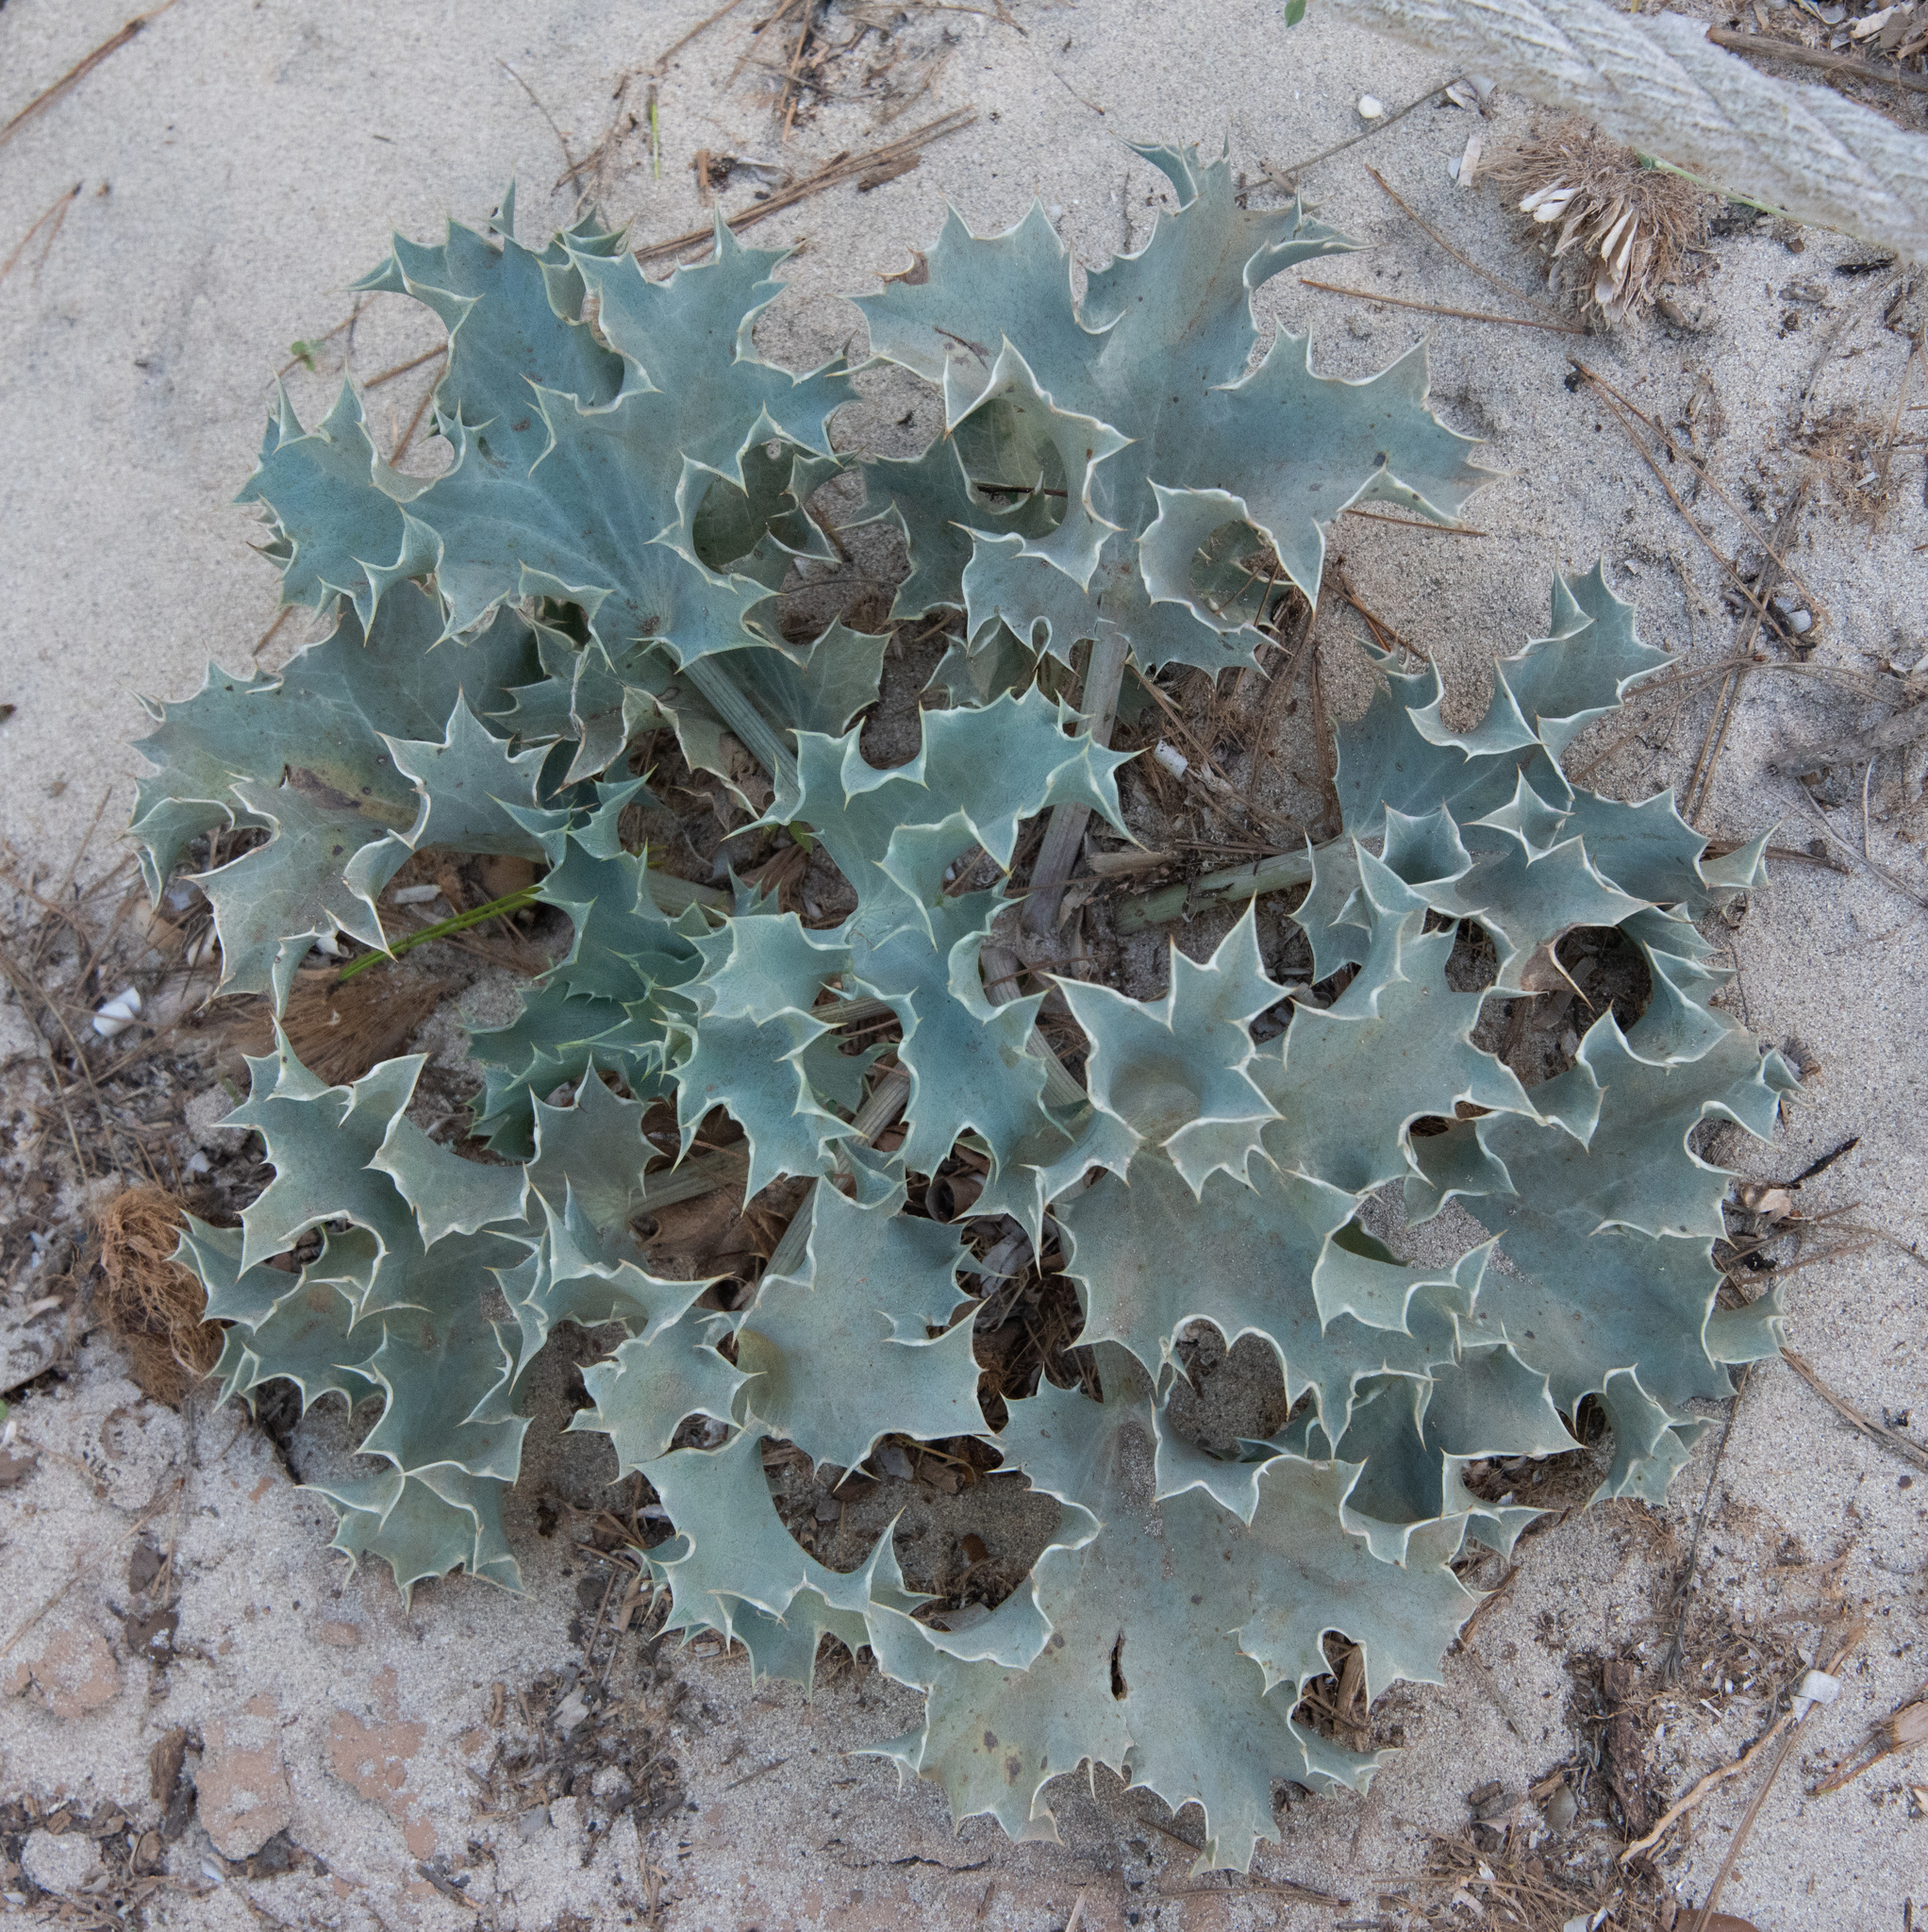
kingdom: Plantae
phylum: Tracheophyta
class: Magnoliopsida
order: Apiales
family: Apiaceae
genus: Eryngium
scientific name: Eryngium maritimum
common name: Sea-holly
